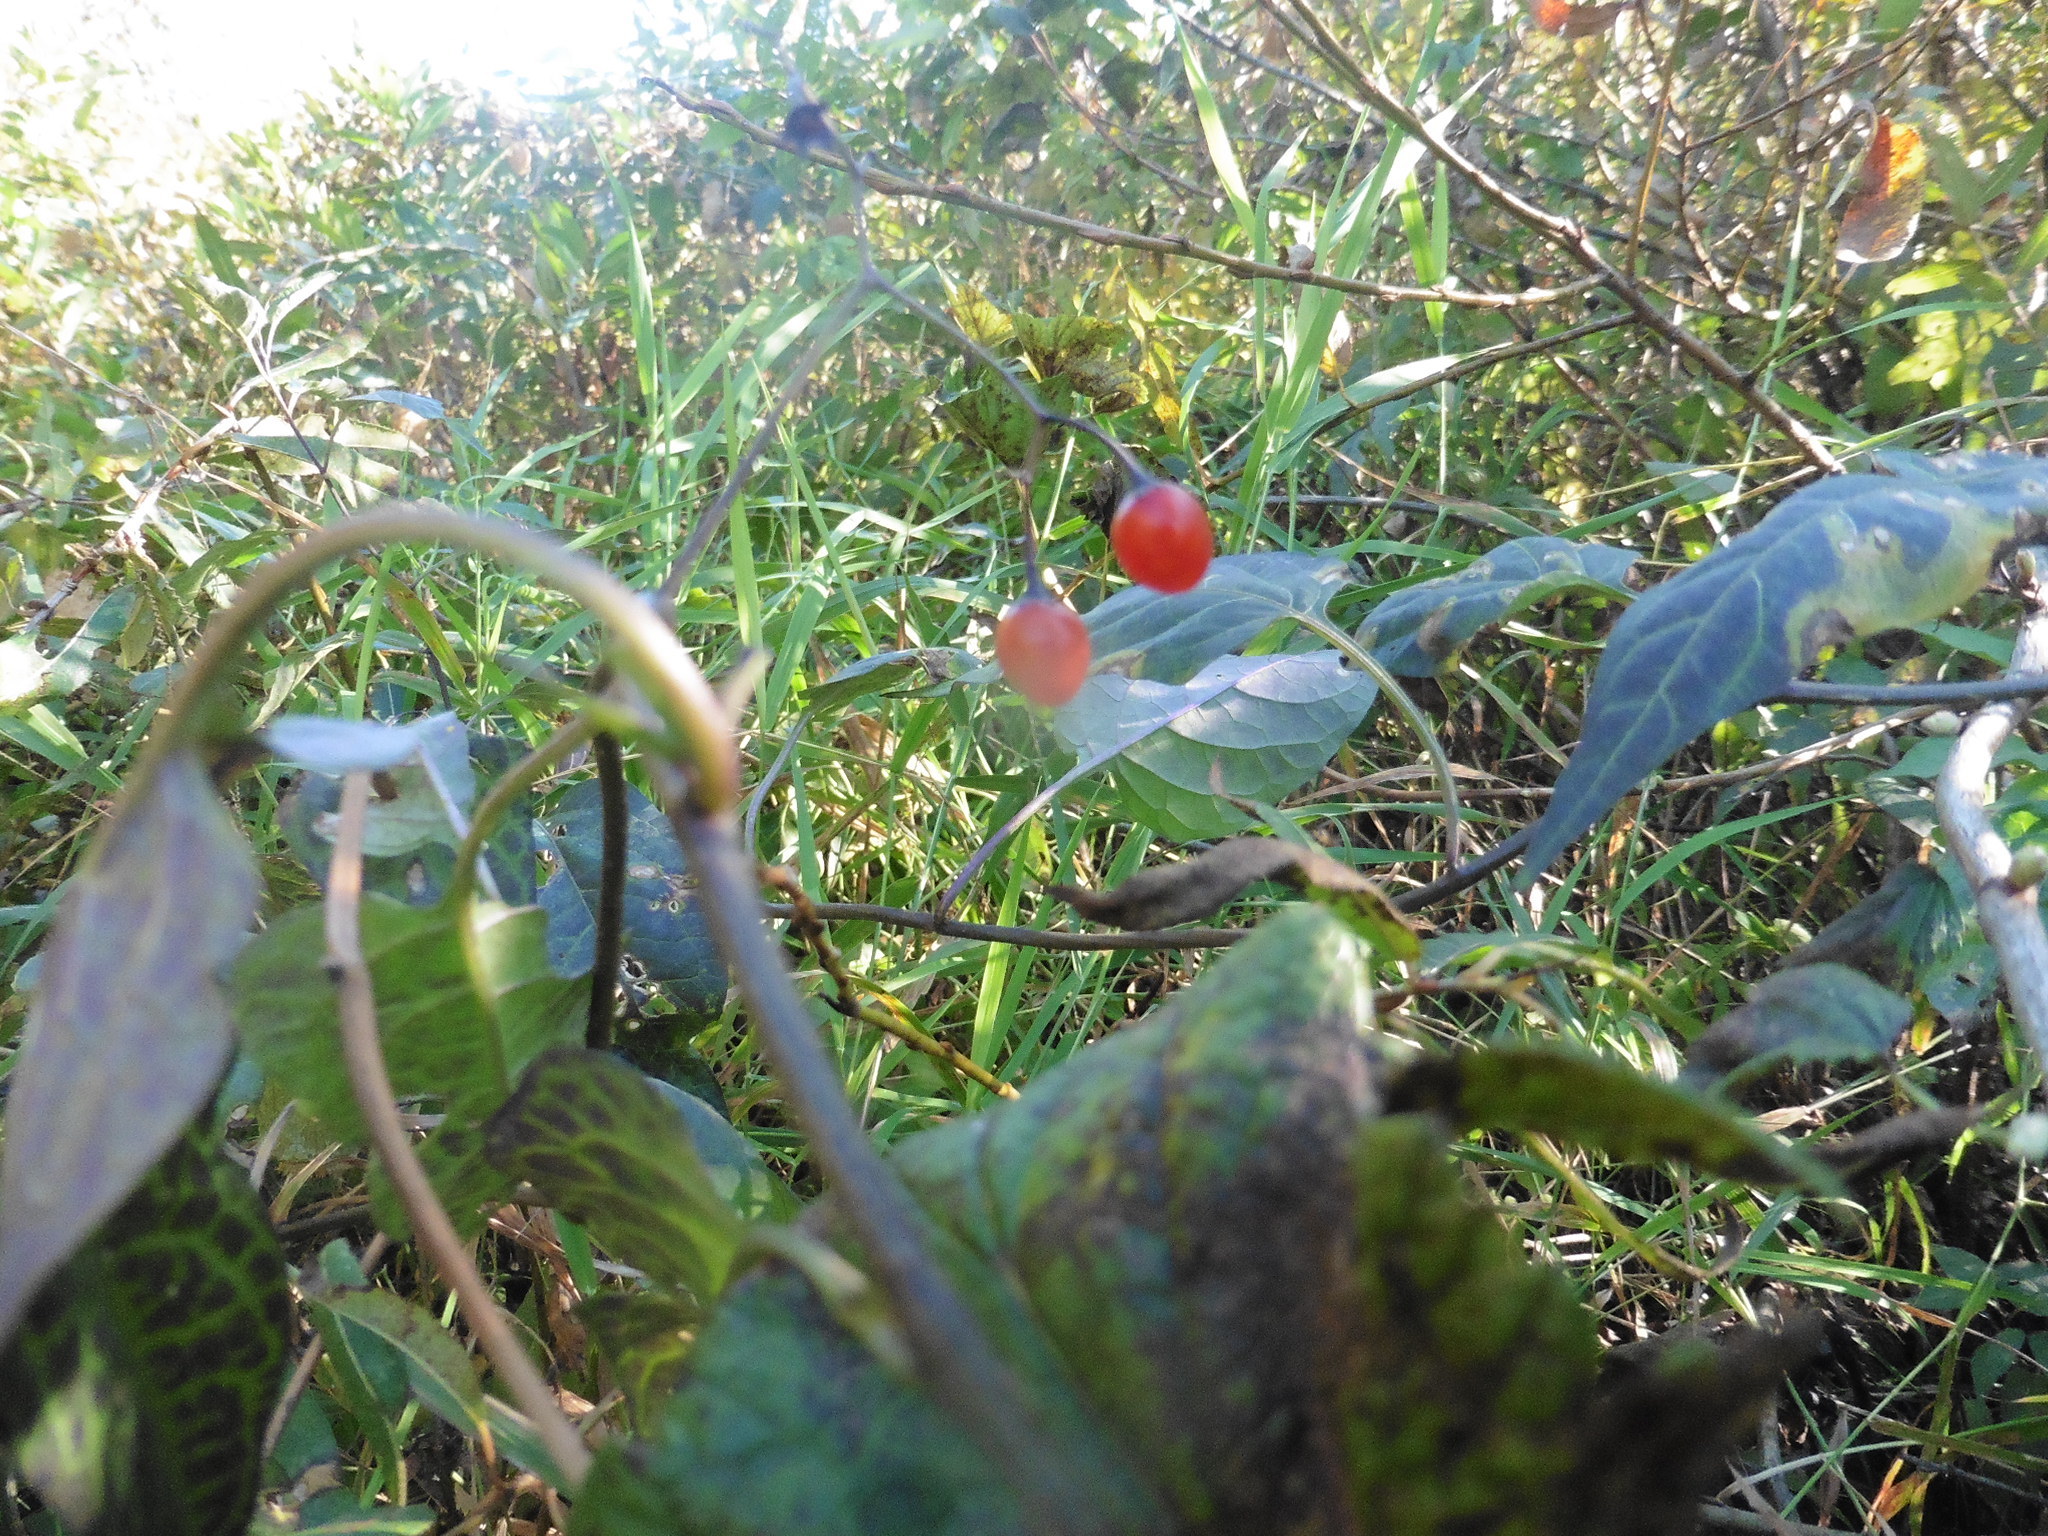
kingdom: Plantae
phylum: Tracheophyta
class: Magnoliopsida
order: Solanales
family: Solanaceae
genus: Solanum
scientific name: Solanum dulcamara
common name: Climbing nightshade
